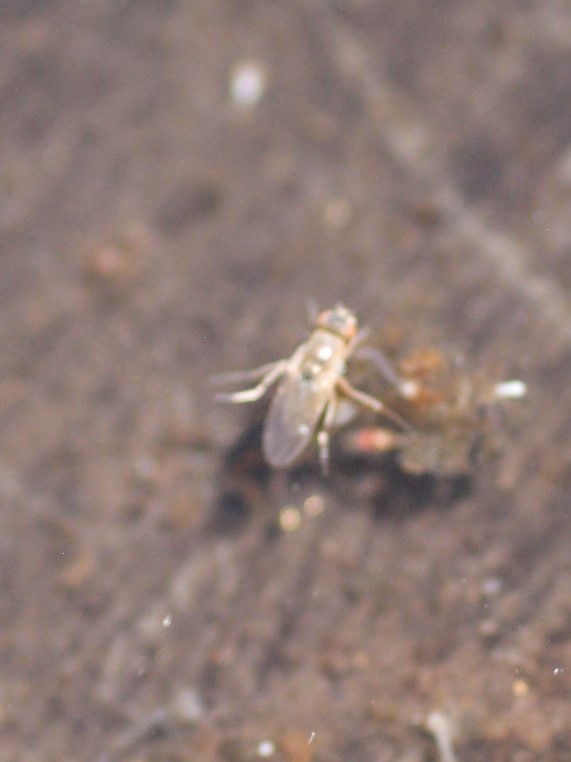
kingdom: Animalia
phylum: Arthropoda
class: Insecta
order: Diptera
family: Ephydridae
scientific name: Ephydridae
